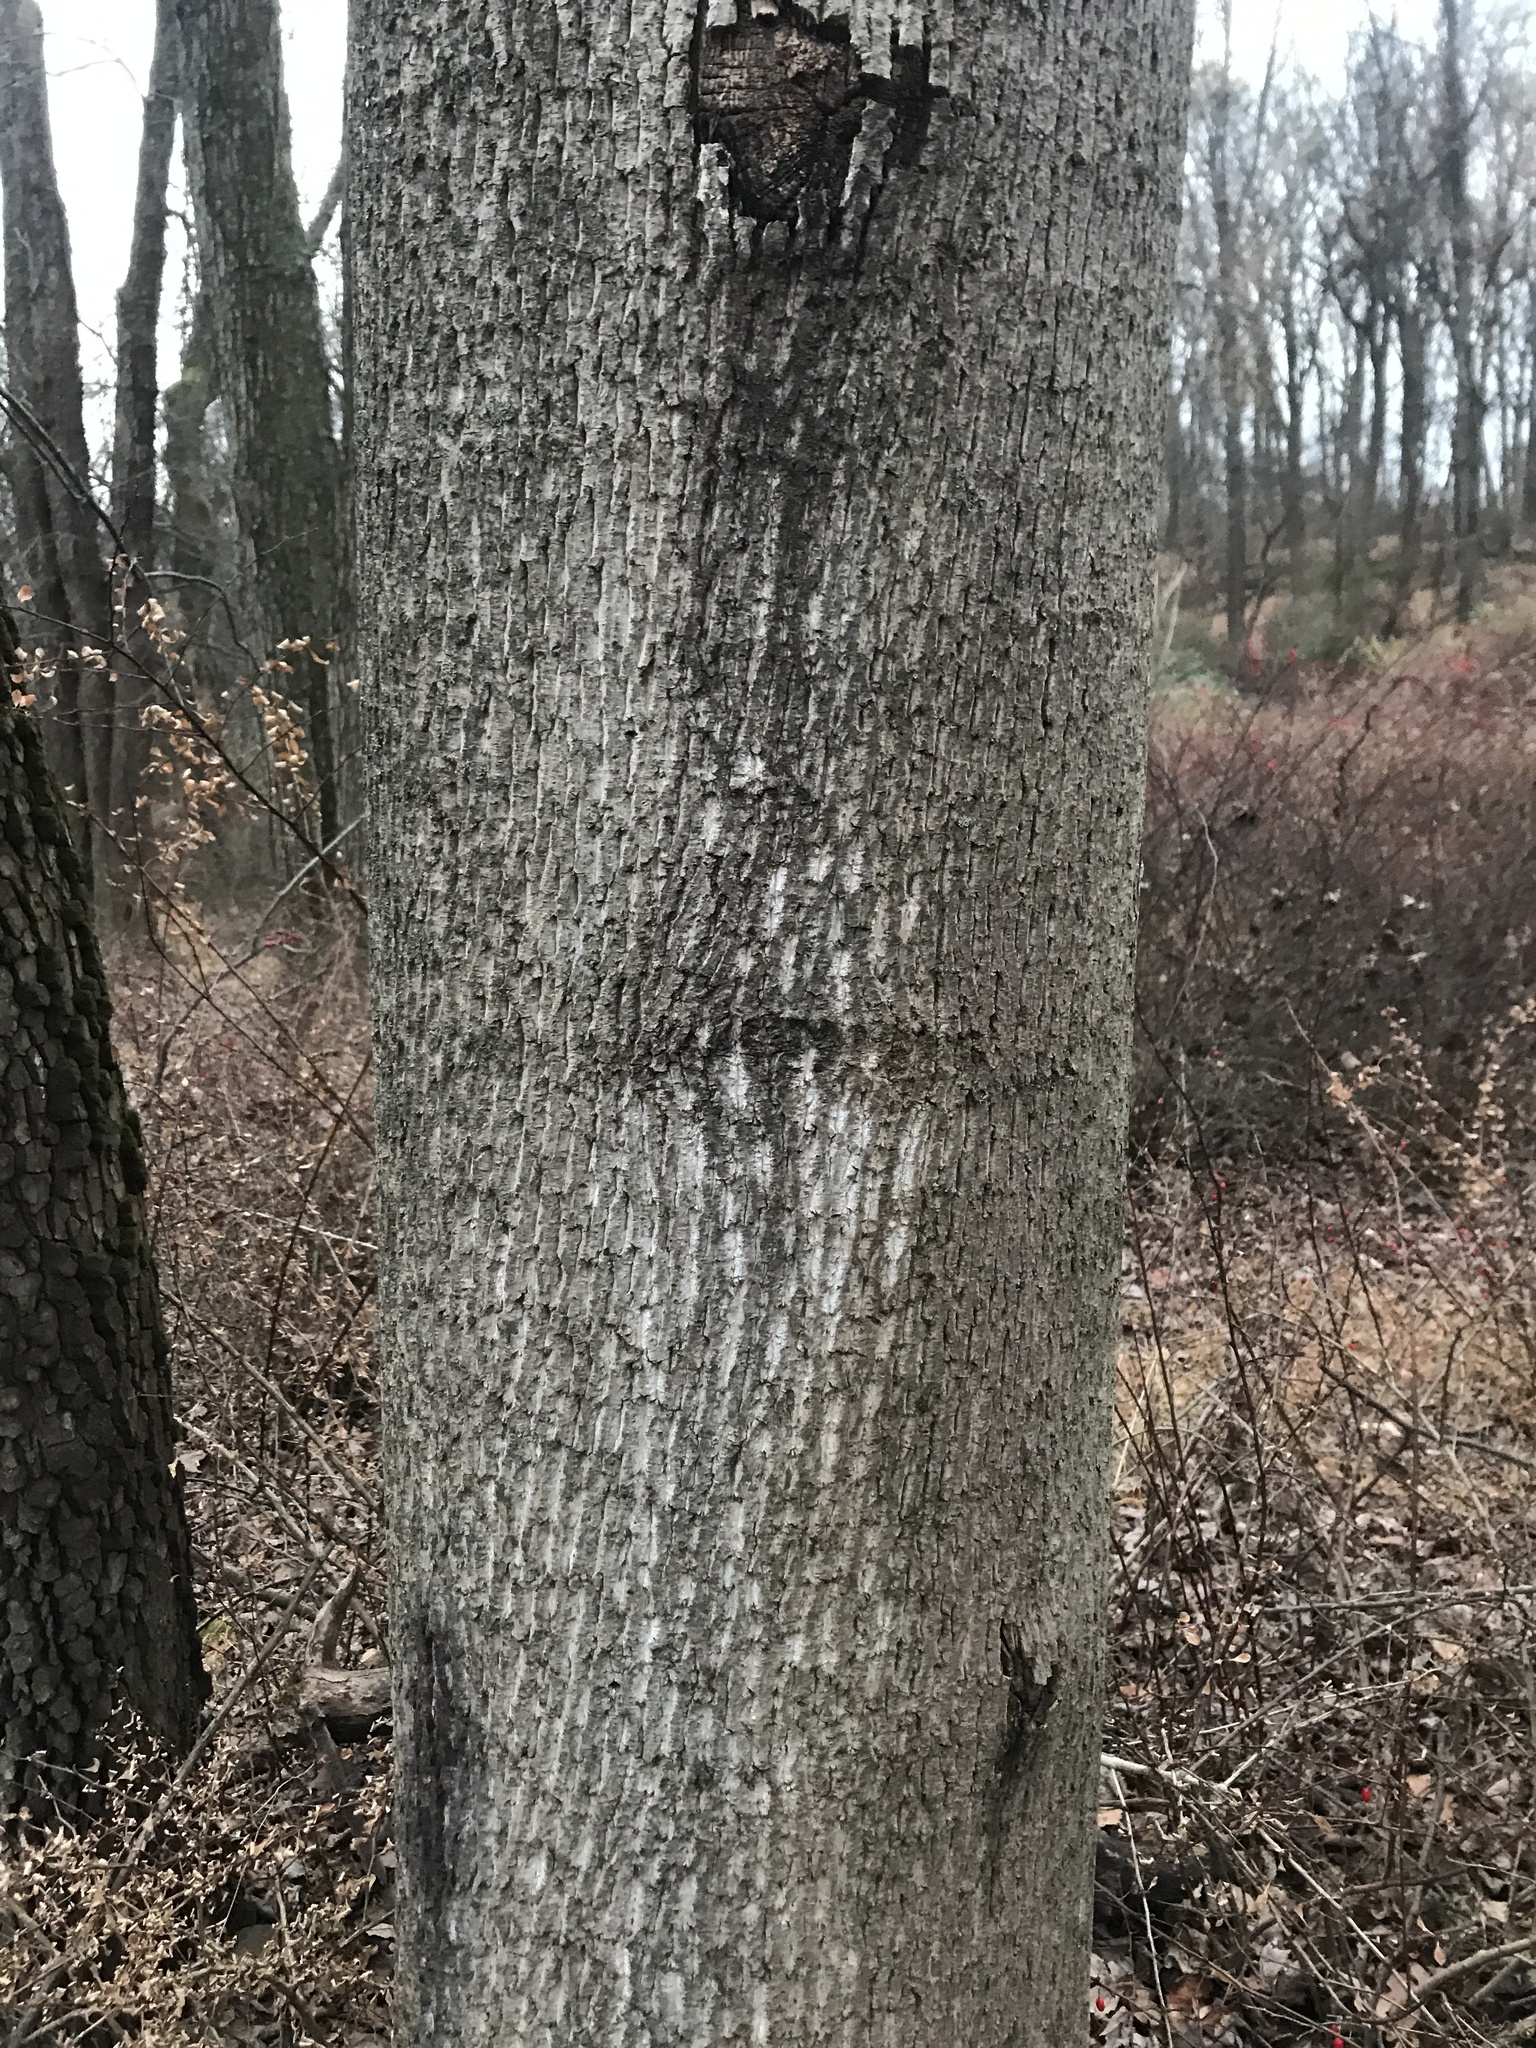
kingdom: Plantae
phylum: Tracheophyta
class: Magnoliopsida
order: Magnoliales
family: Magnoliaceae
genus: Liriodendron
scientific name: Liriodendron tulipifera
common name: Tulip tree
